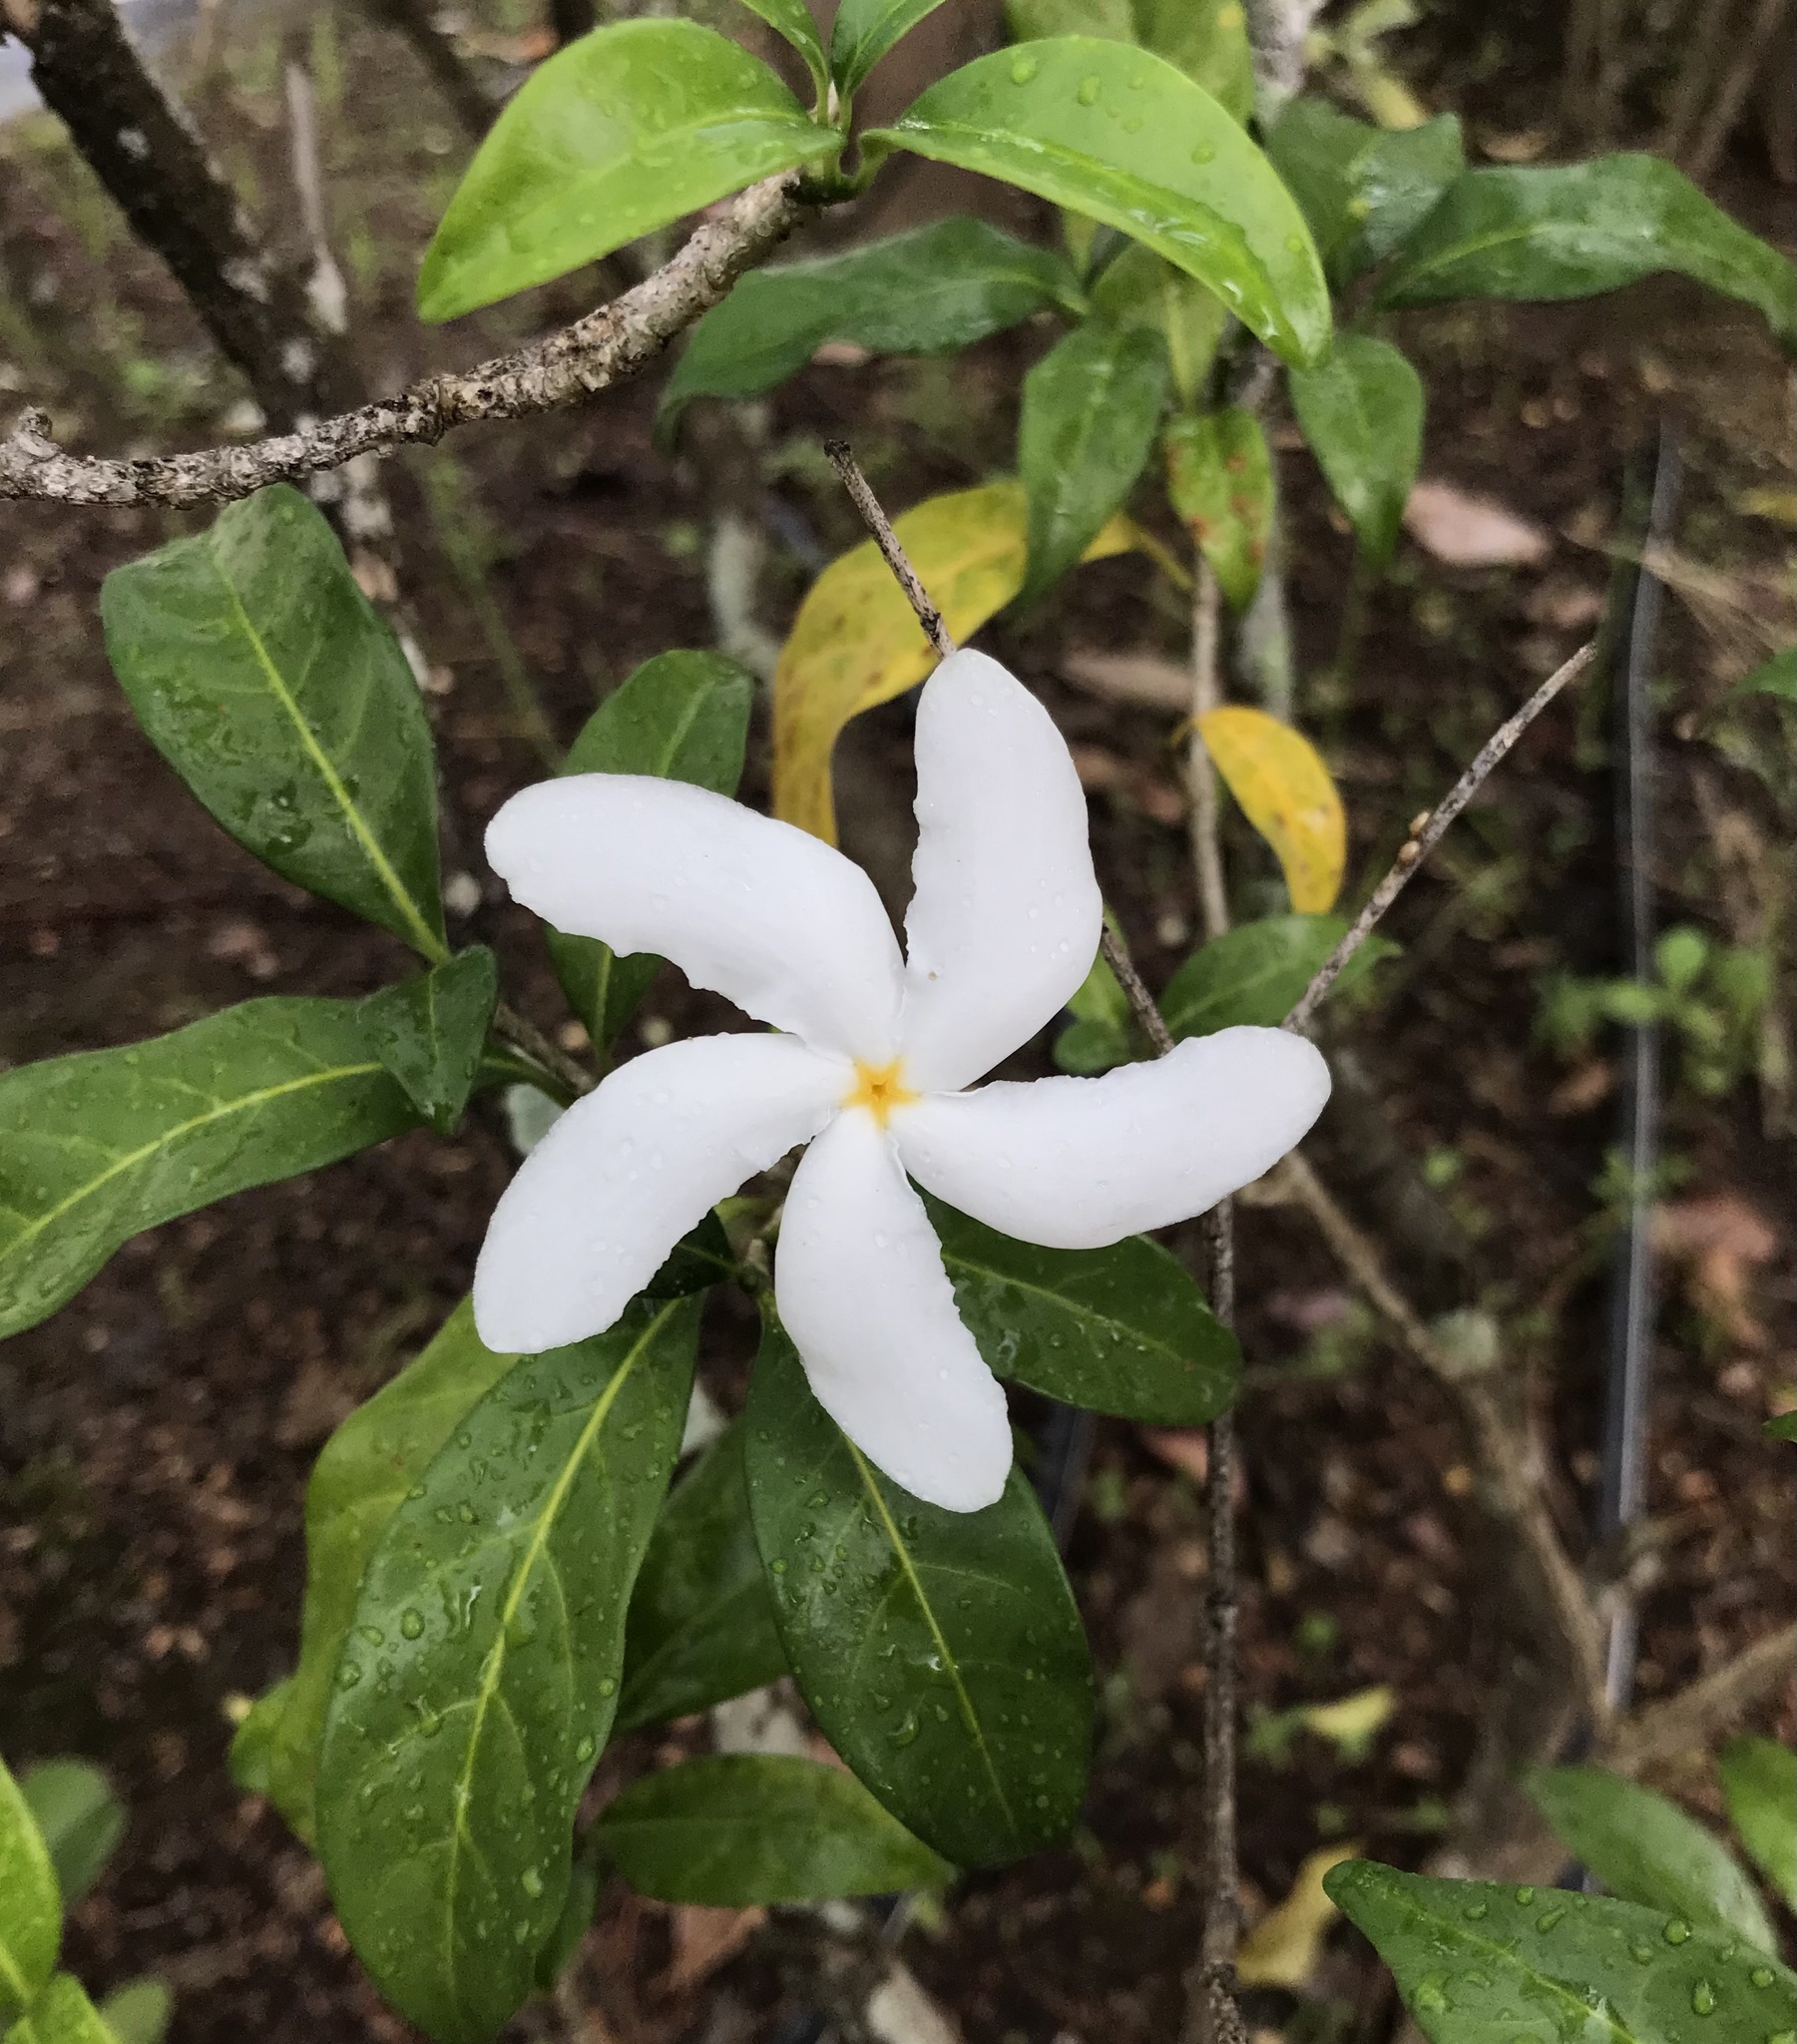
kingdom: Plantae
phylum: Tracheophyta
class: Magnoliopsida
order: Gentianales
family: Apocynaceae
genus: Tabernaemontana
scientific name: Tabernaemontana divaricata
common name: Pinwheelflower
